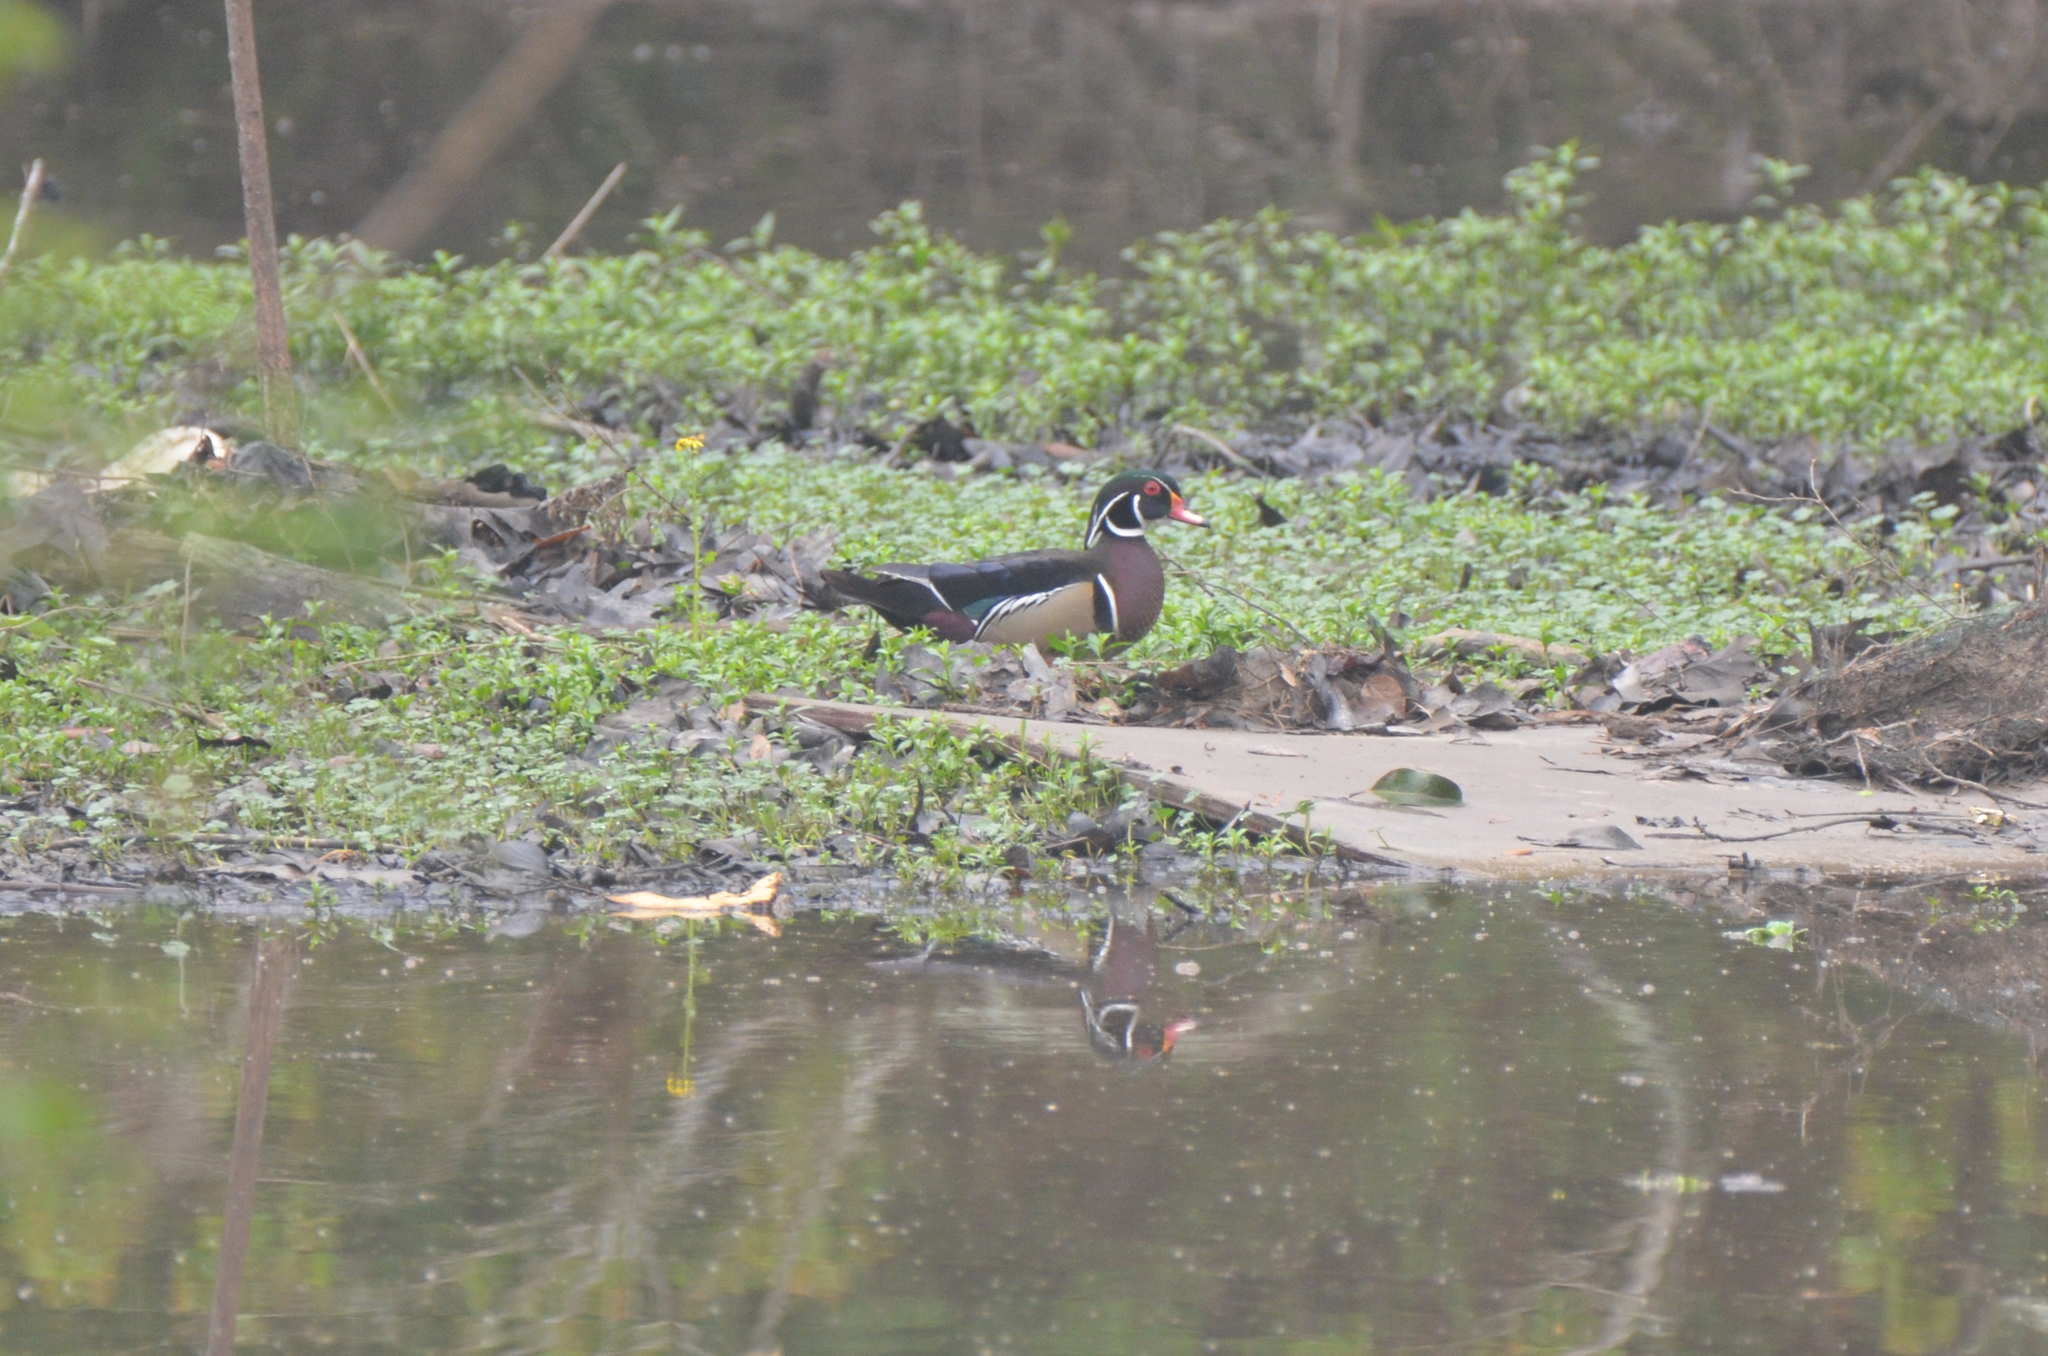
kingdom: Animalia
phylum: Chordata
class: Aves
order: Anseriformes
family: Anatidae
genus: Aix
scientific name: Aix sponsa
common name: Wood duck
